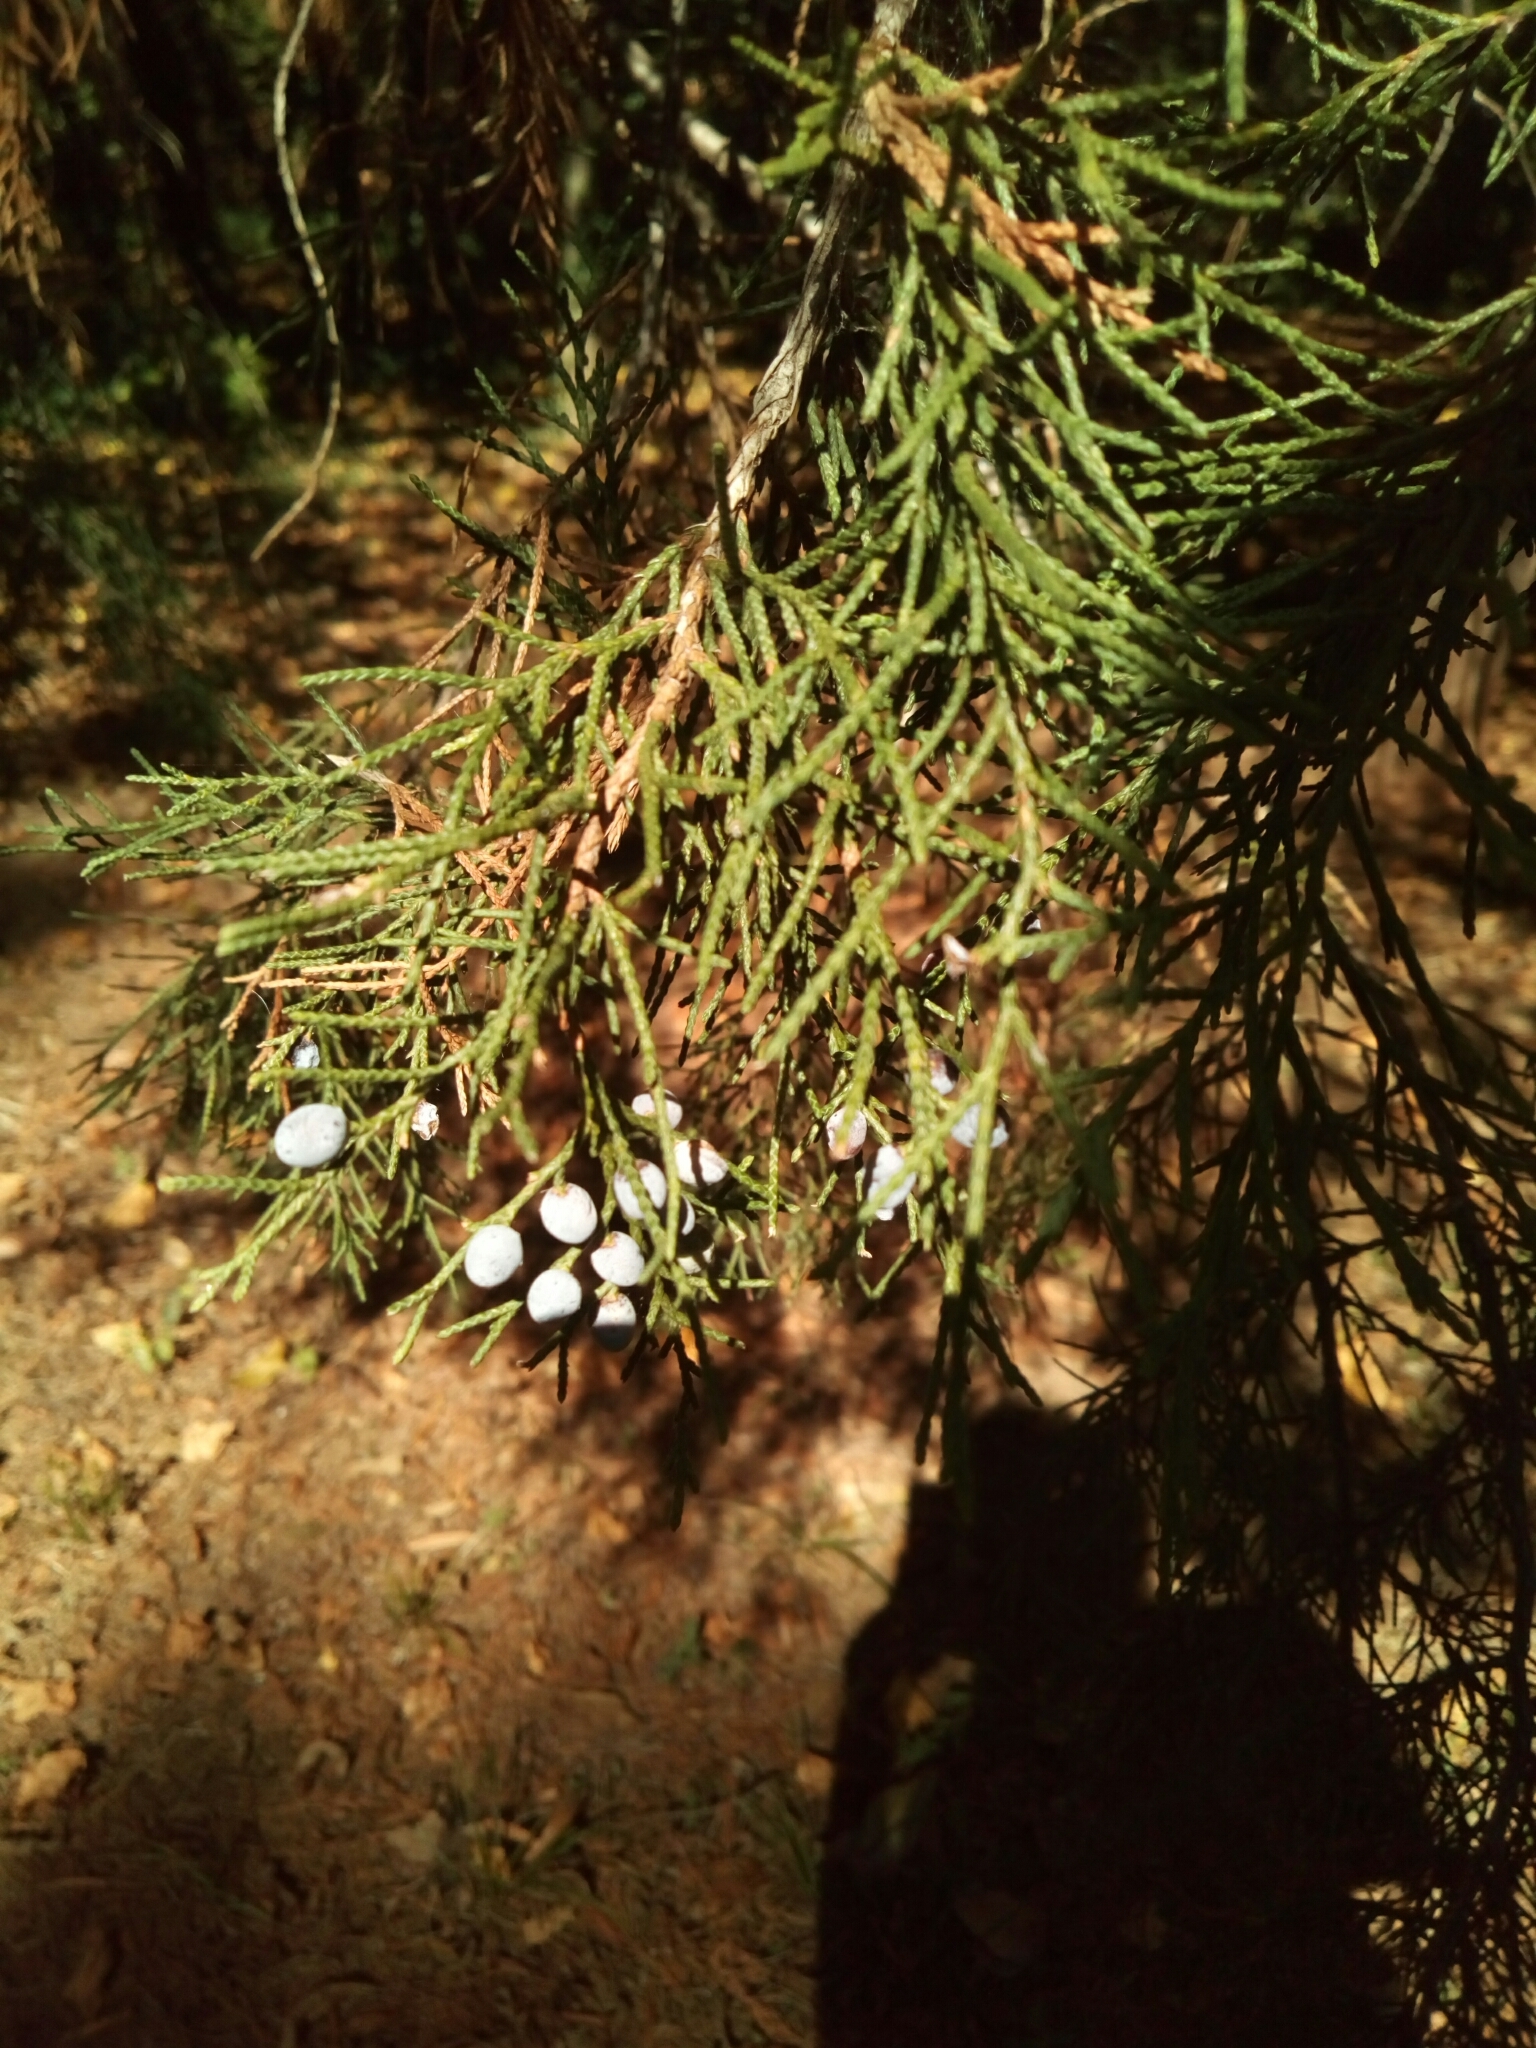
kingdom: Plantae
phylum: Tracheophyta
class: Pinopsida
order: Pinales
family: Cupressaceae
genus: Juniperus
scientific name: Juniperus virginiana
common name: Red juniper
